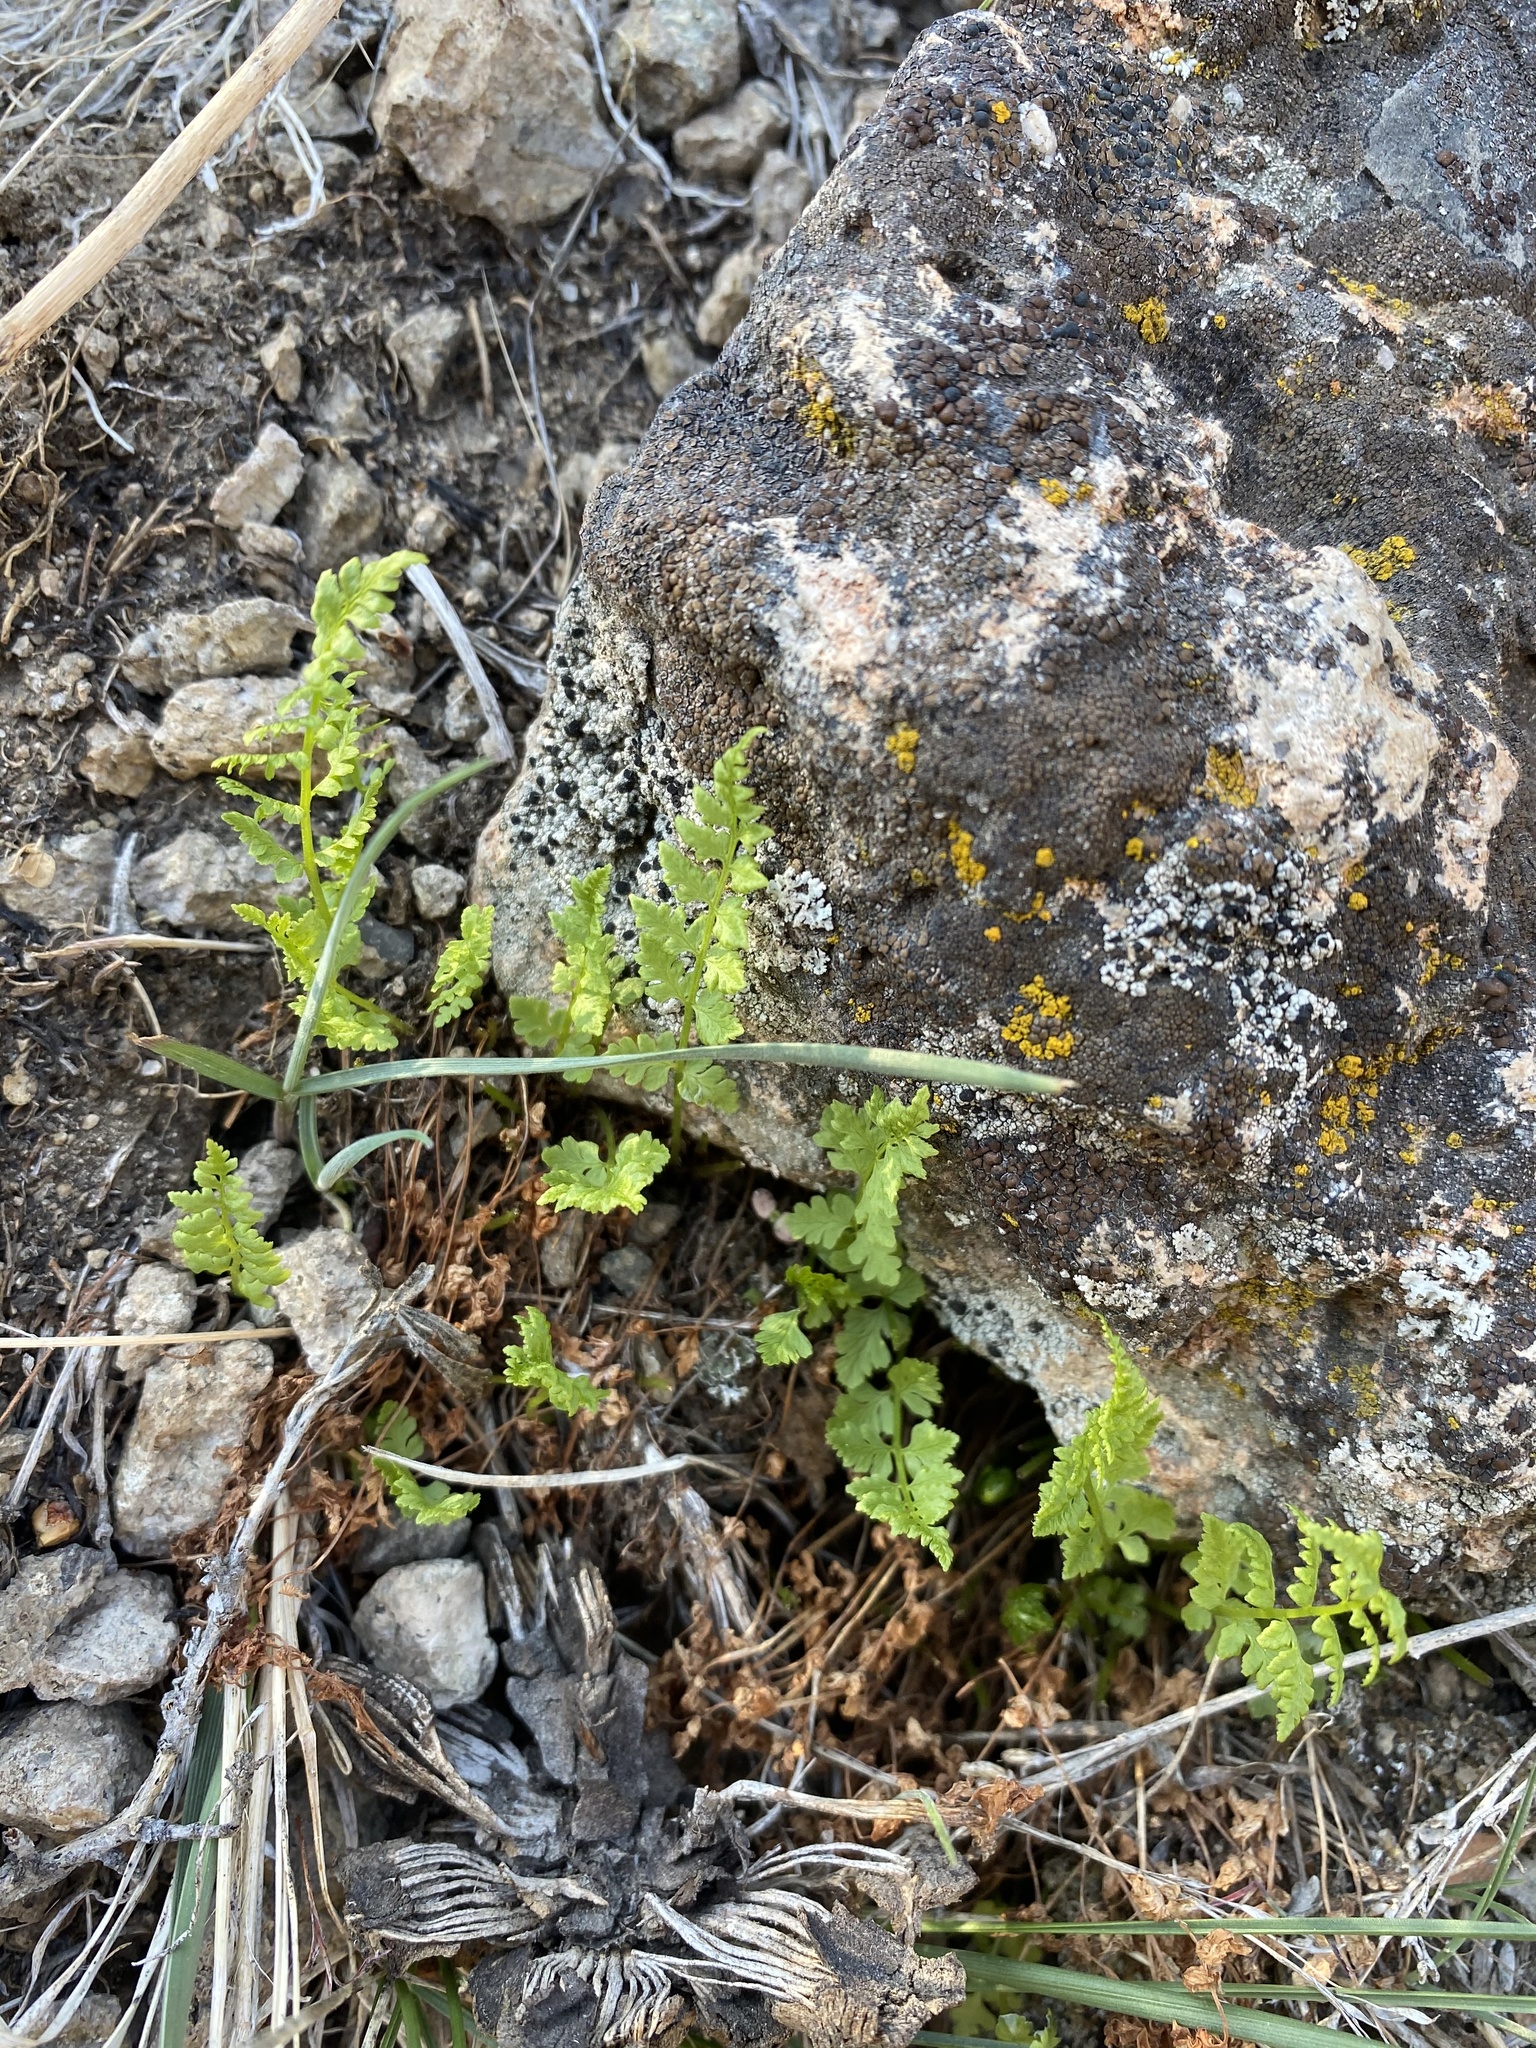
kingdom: Plantae
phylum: Tracheophyta
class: Polypodiopsida
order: Polypodiales
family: Woodsiaceae
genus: Physematium
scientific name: Physematium oreganum
